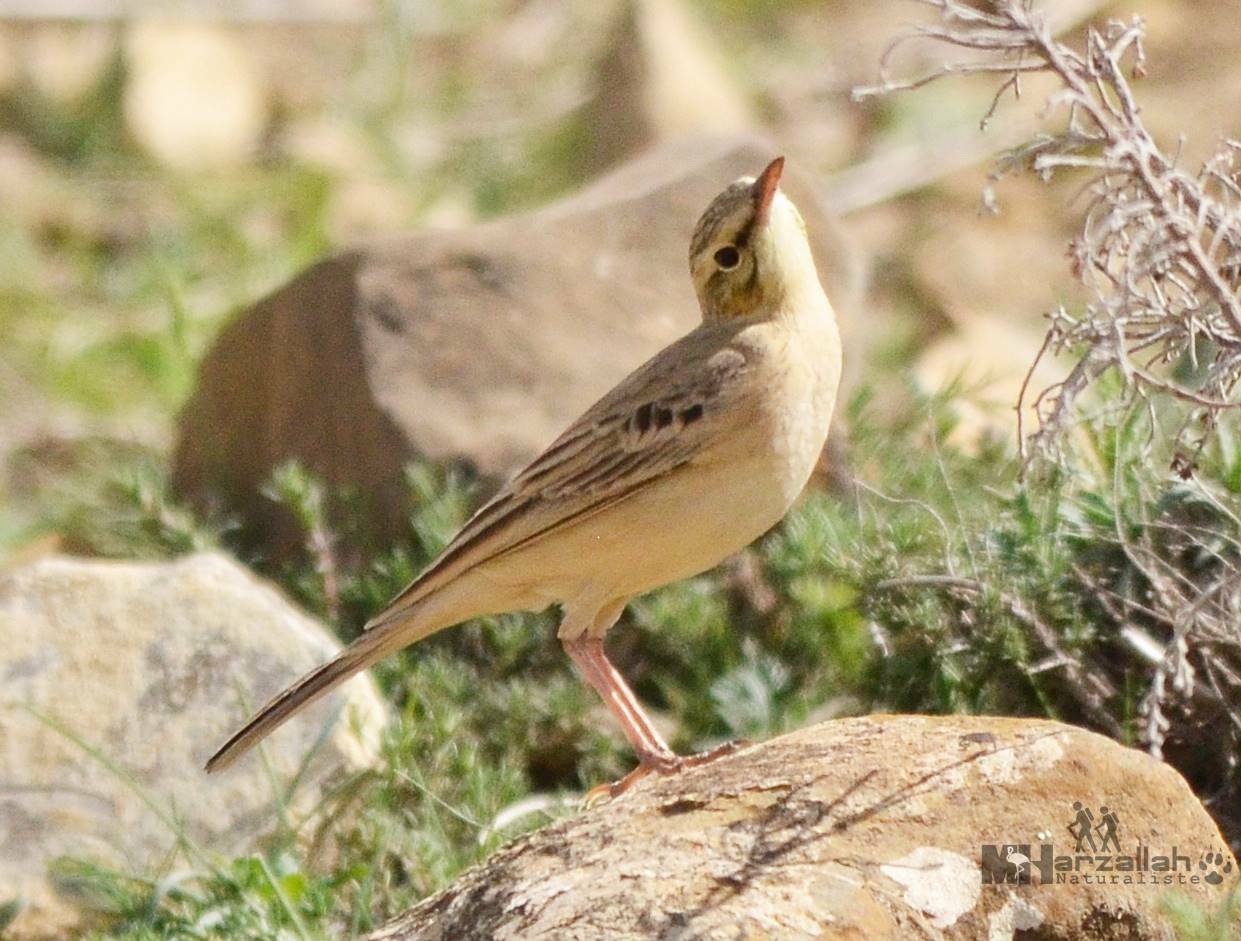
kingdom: Animalia
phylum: Chordata
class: Aves
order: Passeriformes
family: Motacillidae
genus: Anthus
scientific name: Anthus campestris
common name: Tawny pipit
